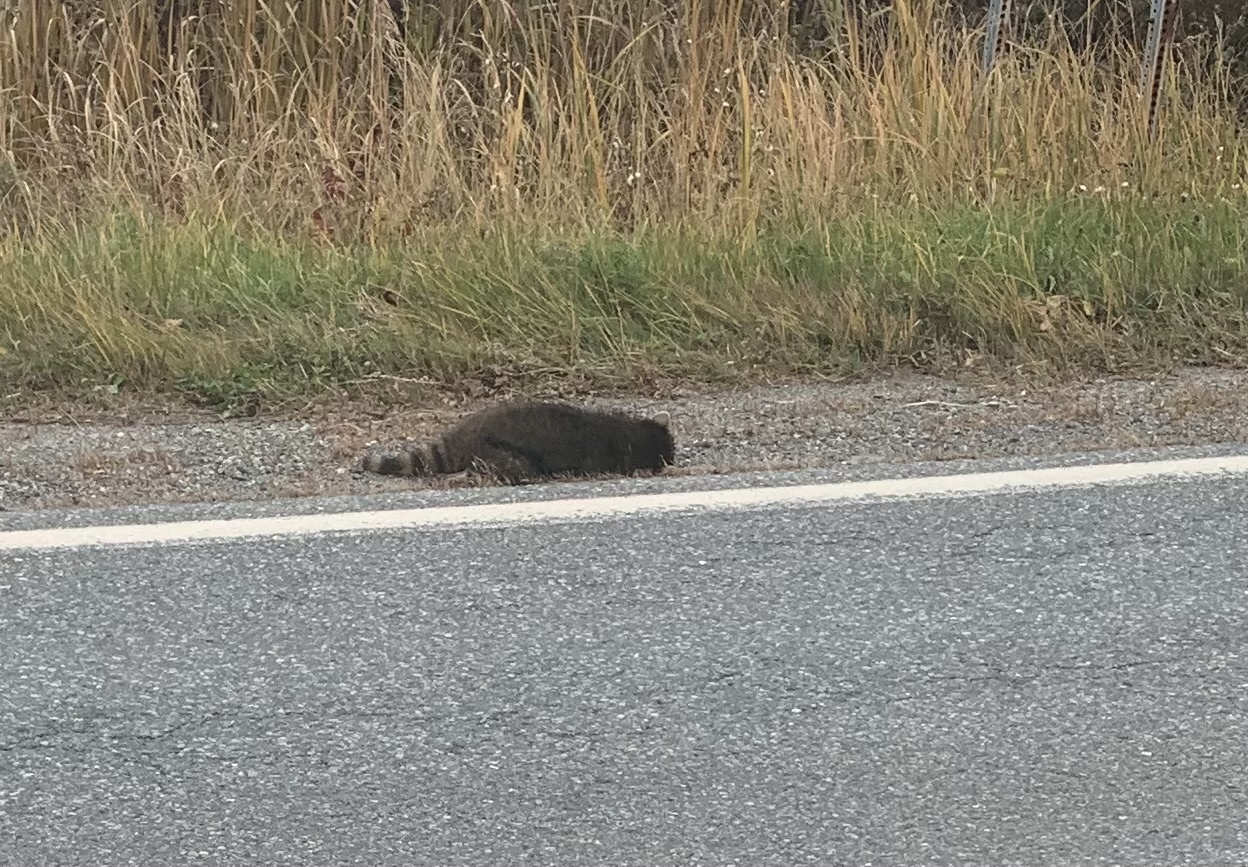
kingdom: Animalia
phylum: Chordata
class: Mammalia
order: Carnivora
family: Procyonidae
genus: Procyon
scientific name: Procyon lotor
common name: Raccoon
